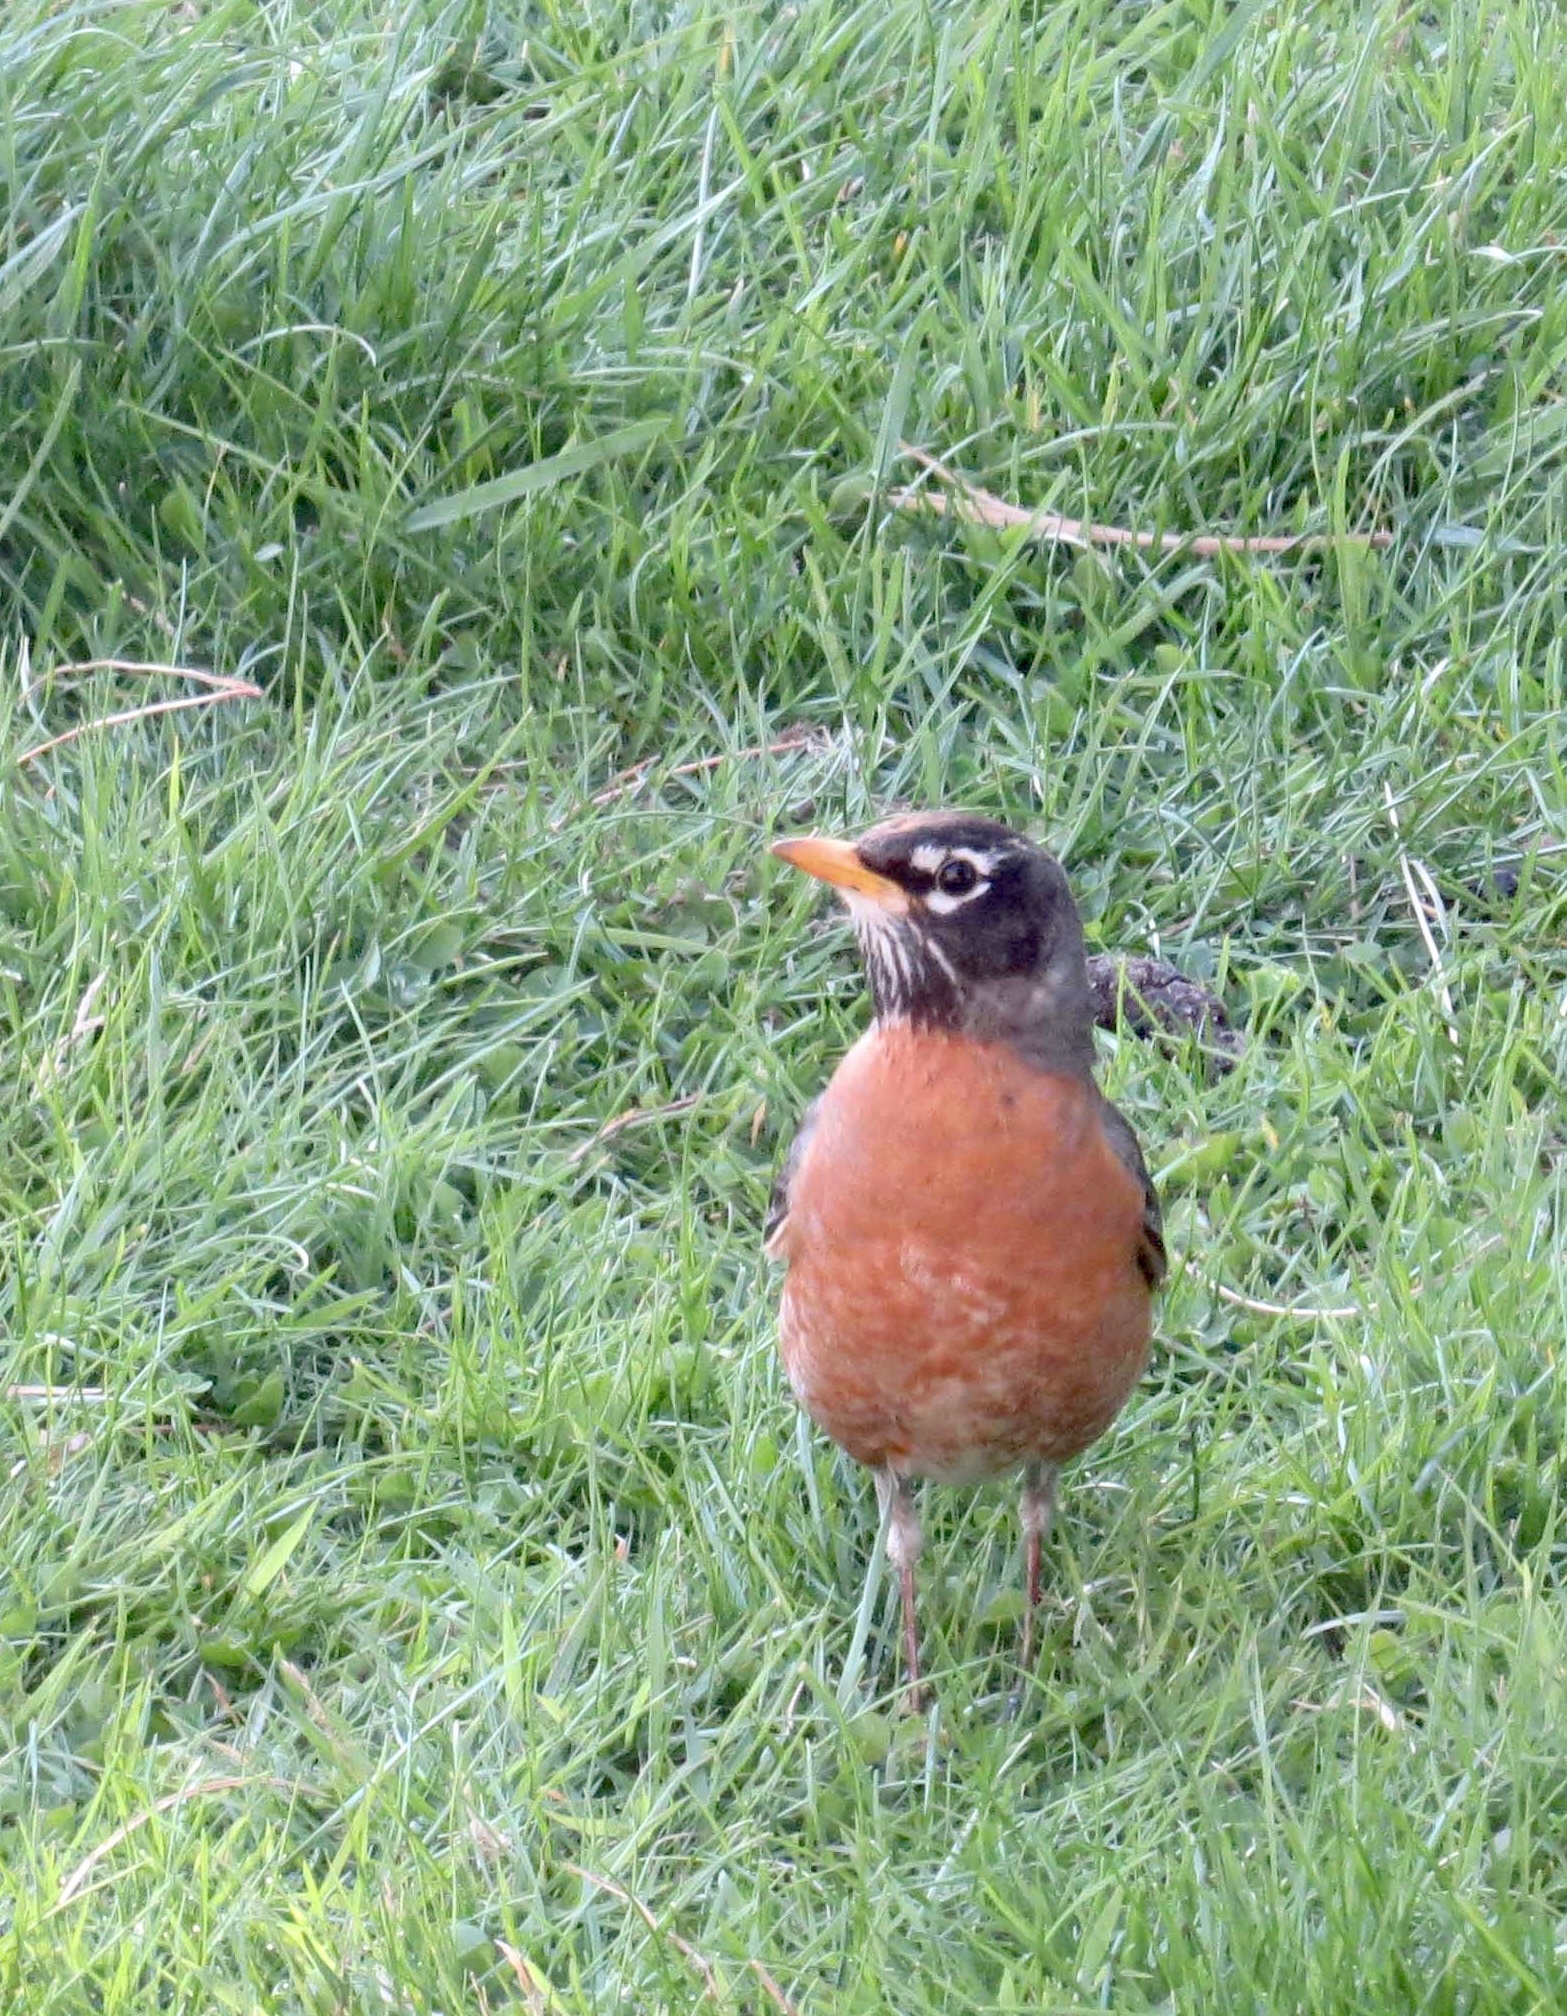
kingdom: Animalia
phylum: Chordata
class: Aves
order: Passeriformes
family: Turdidae
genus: Turdus
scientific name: Turdus migratorius
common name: American robin
